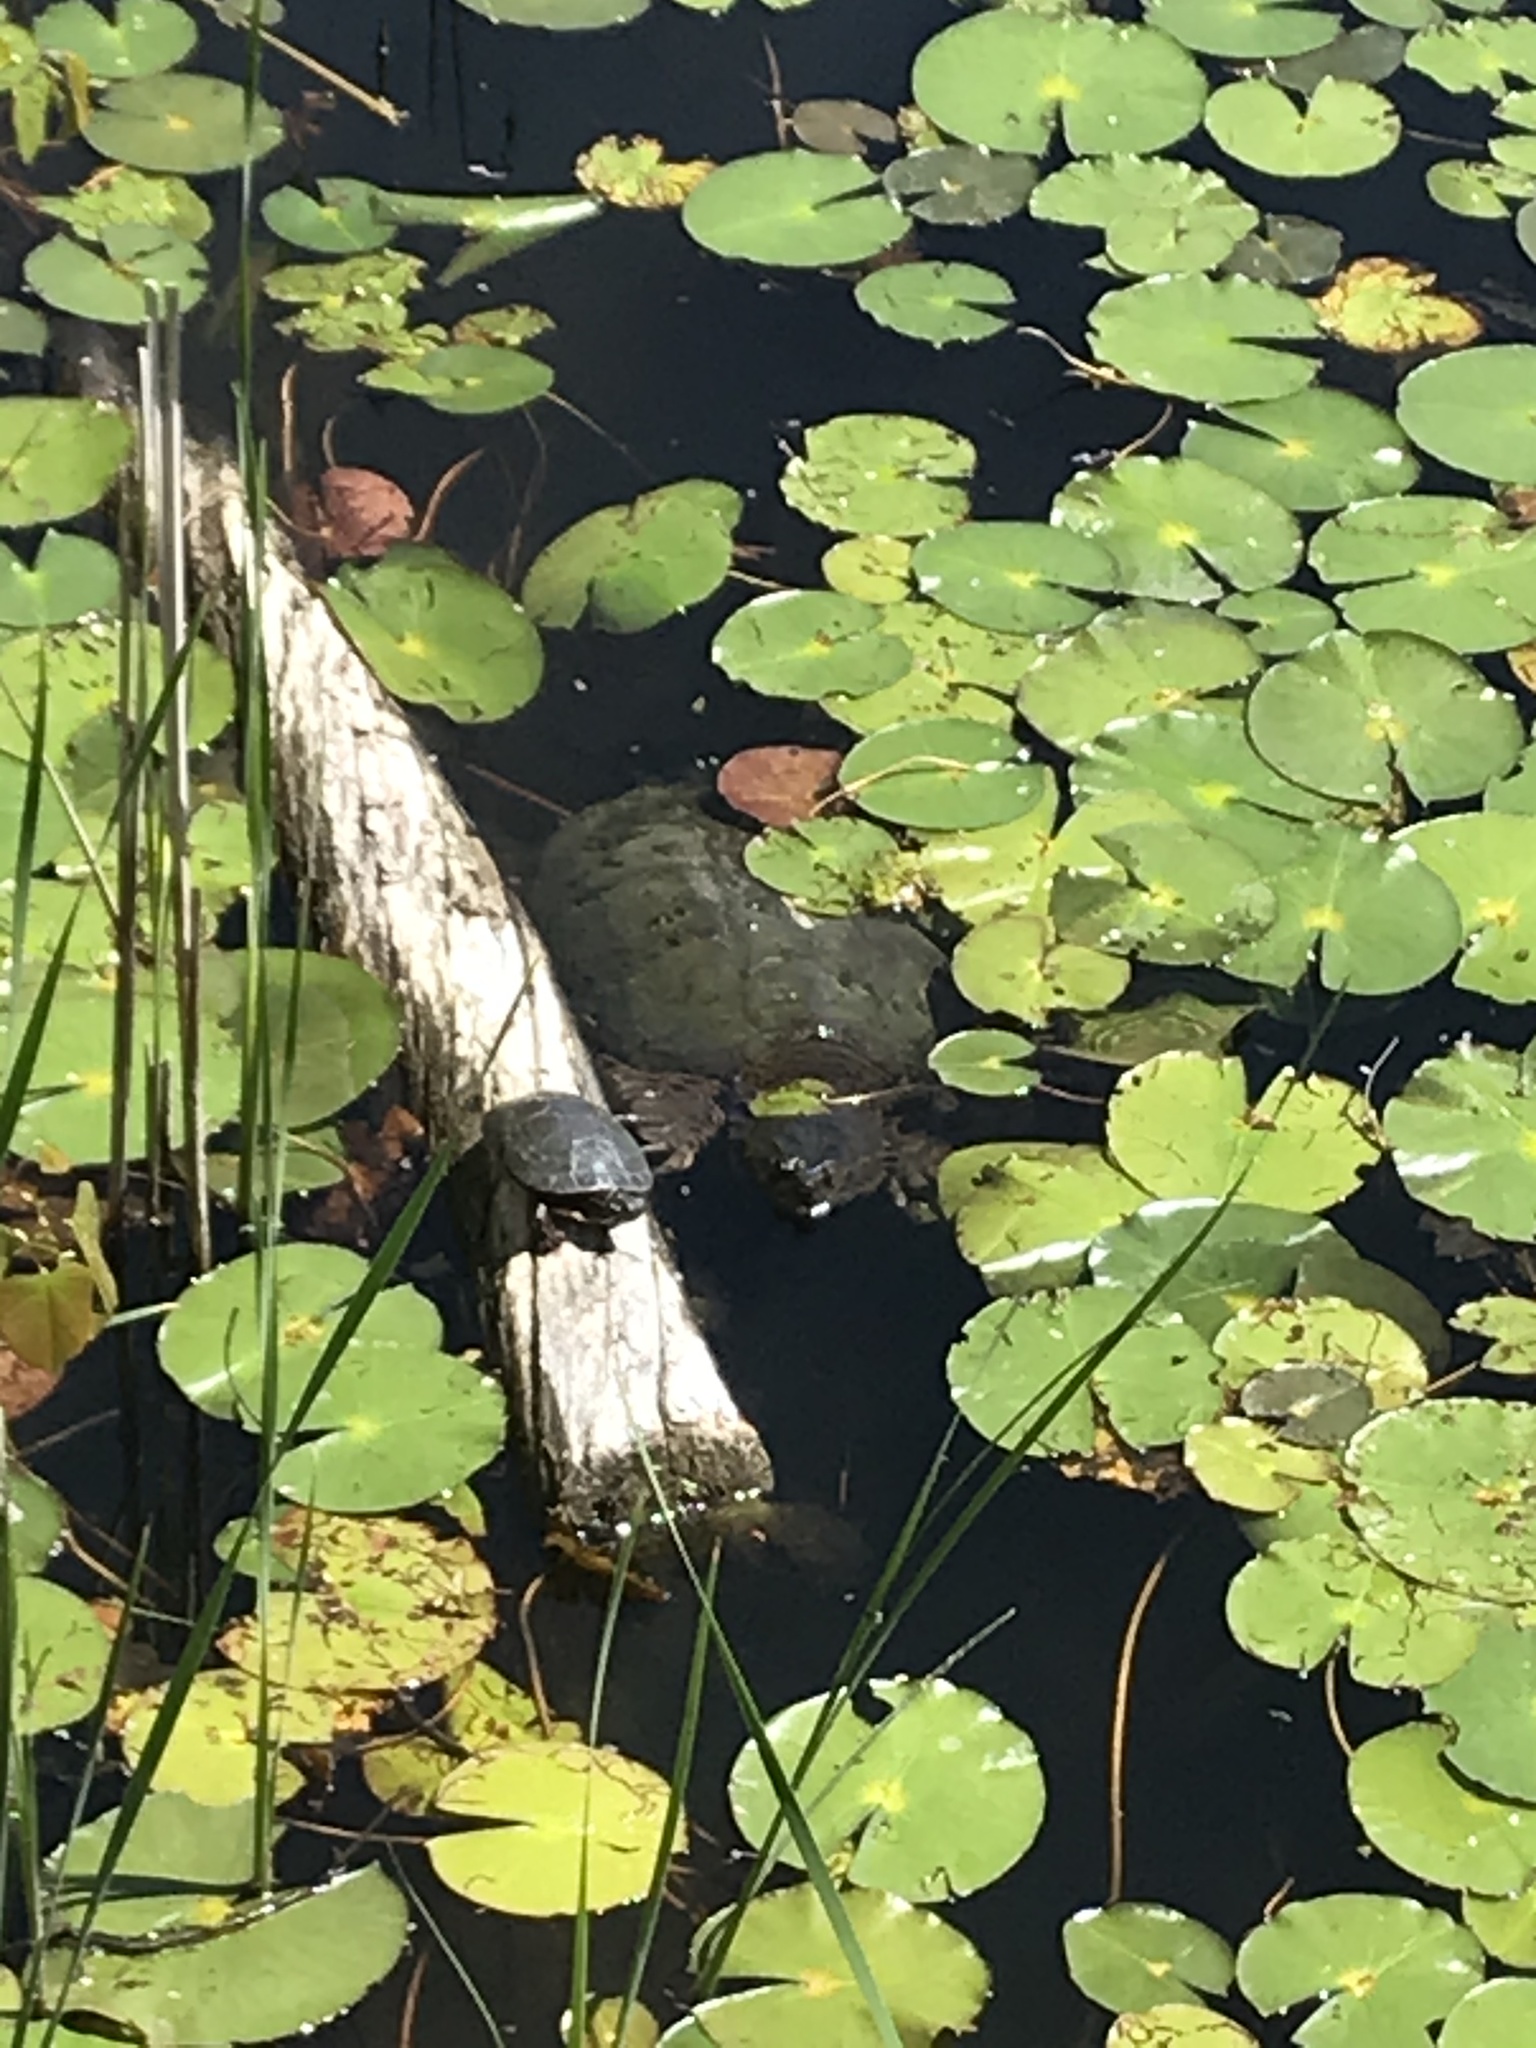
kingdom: Animalia
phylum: Chordata
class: Testudines
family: Chelydridae
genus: Chelydra
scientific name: Chelydra serpentina
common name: Common snapping turtle
